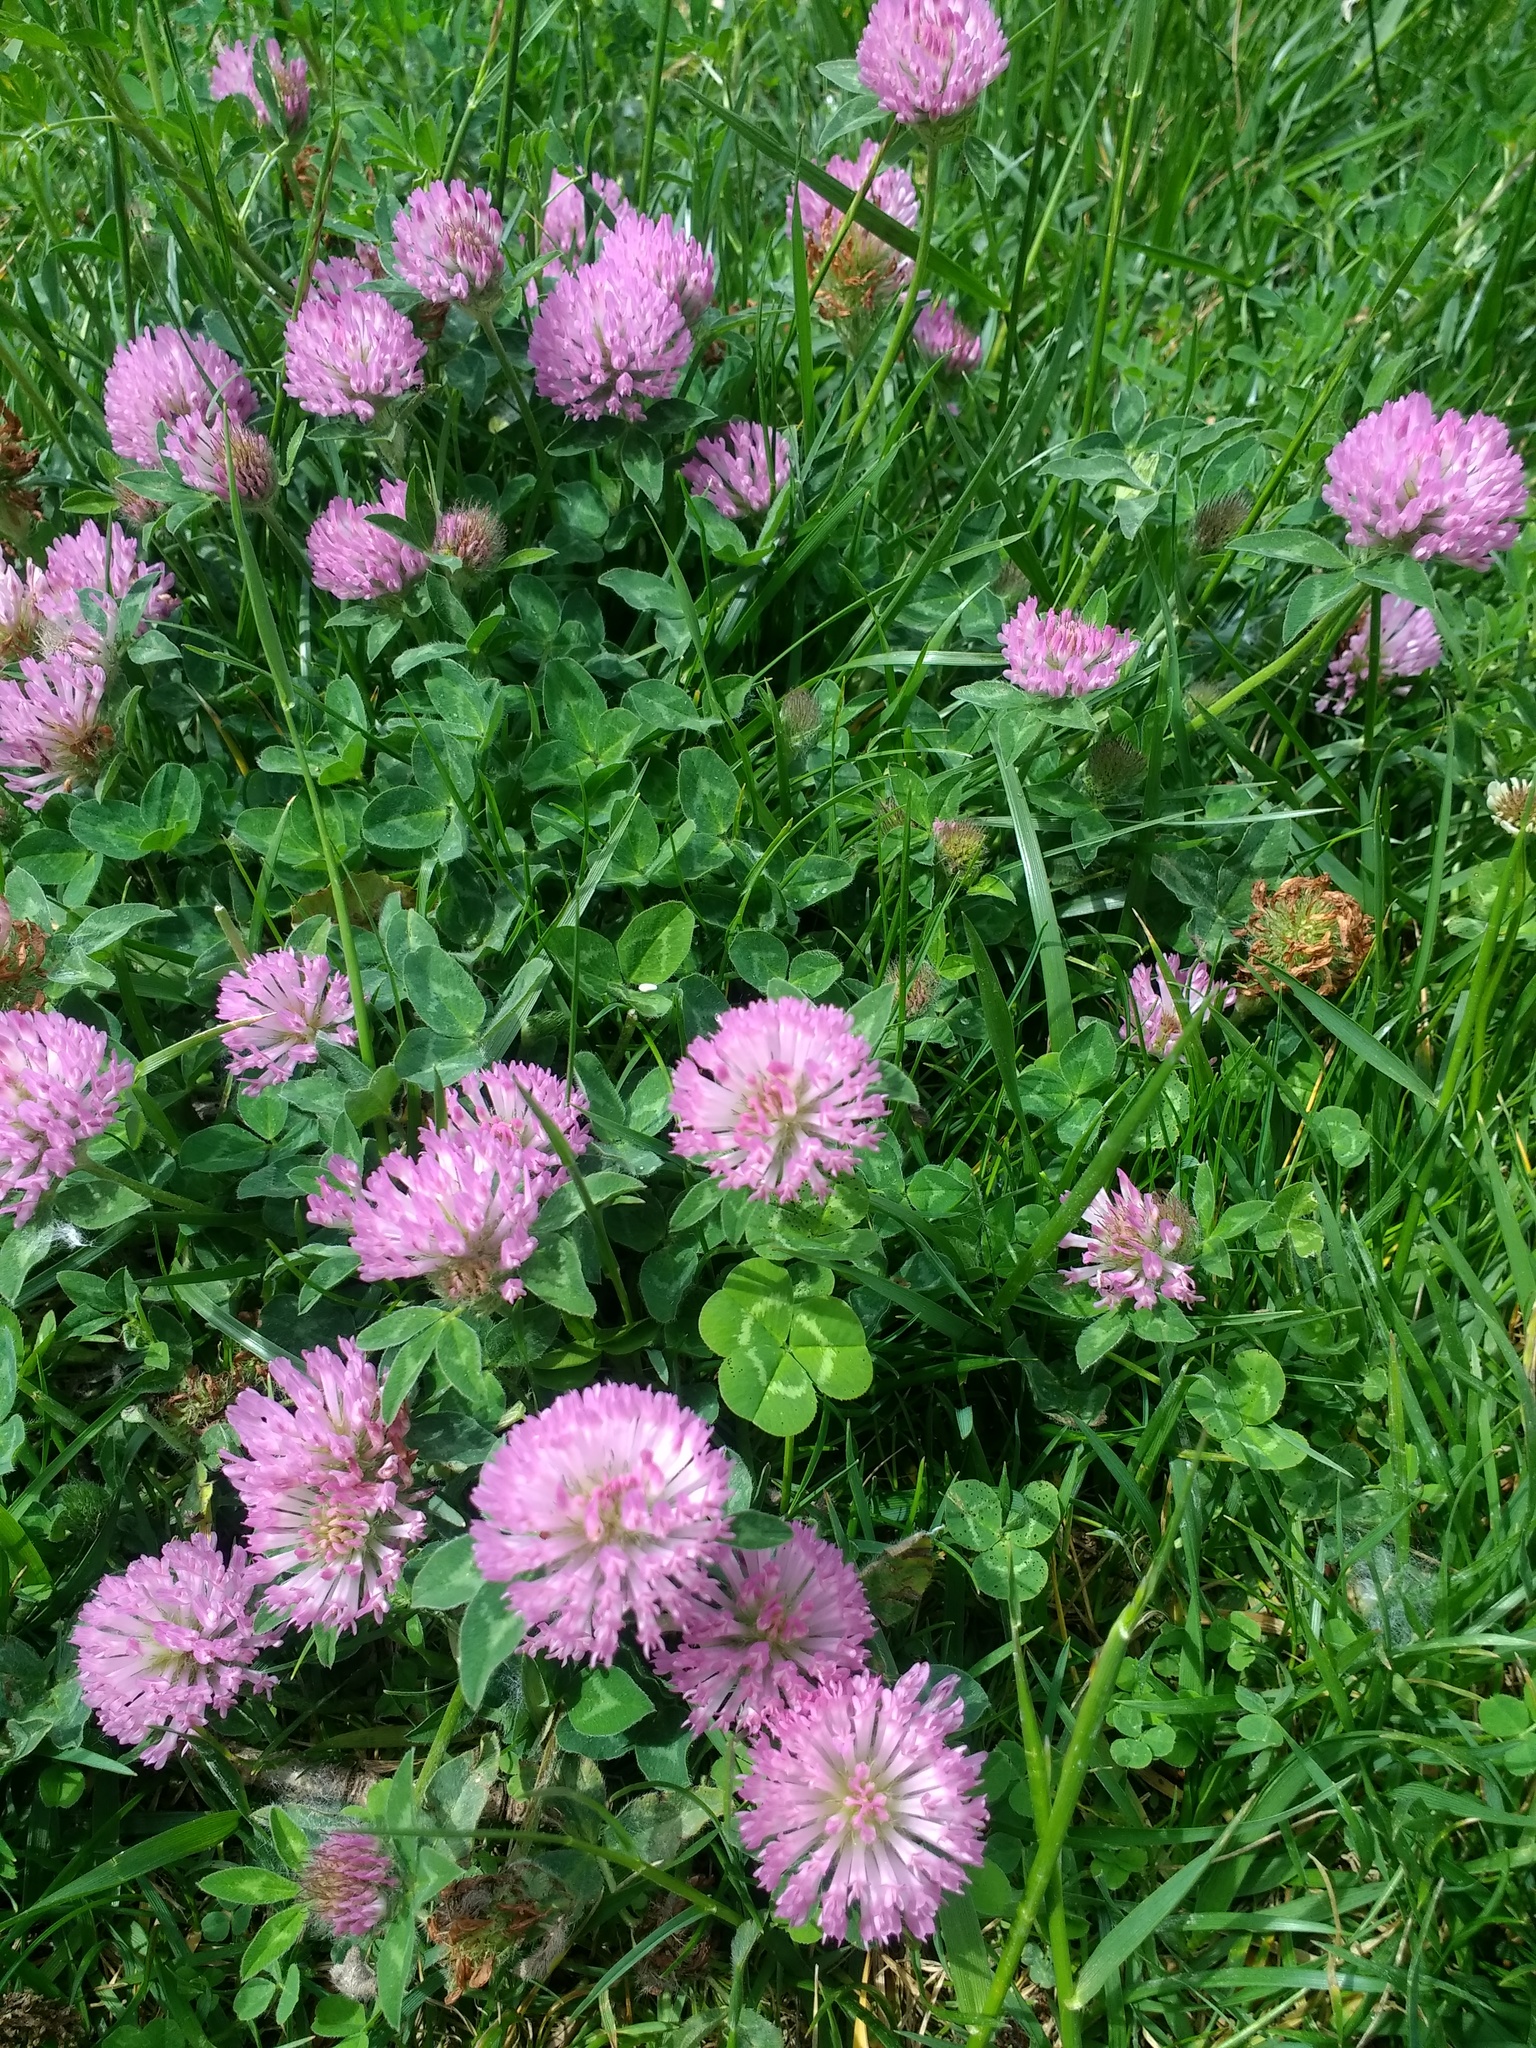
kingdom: Plantae
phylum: Tracheophyta
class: Magnoliopsida
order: Fabales
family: Fabaceae
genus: Trifolium
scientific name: Trifolium pratense
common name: Red clover
